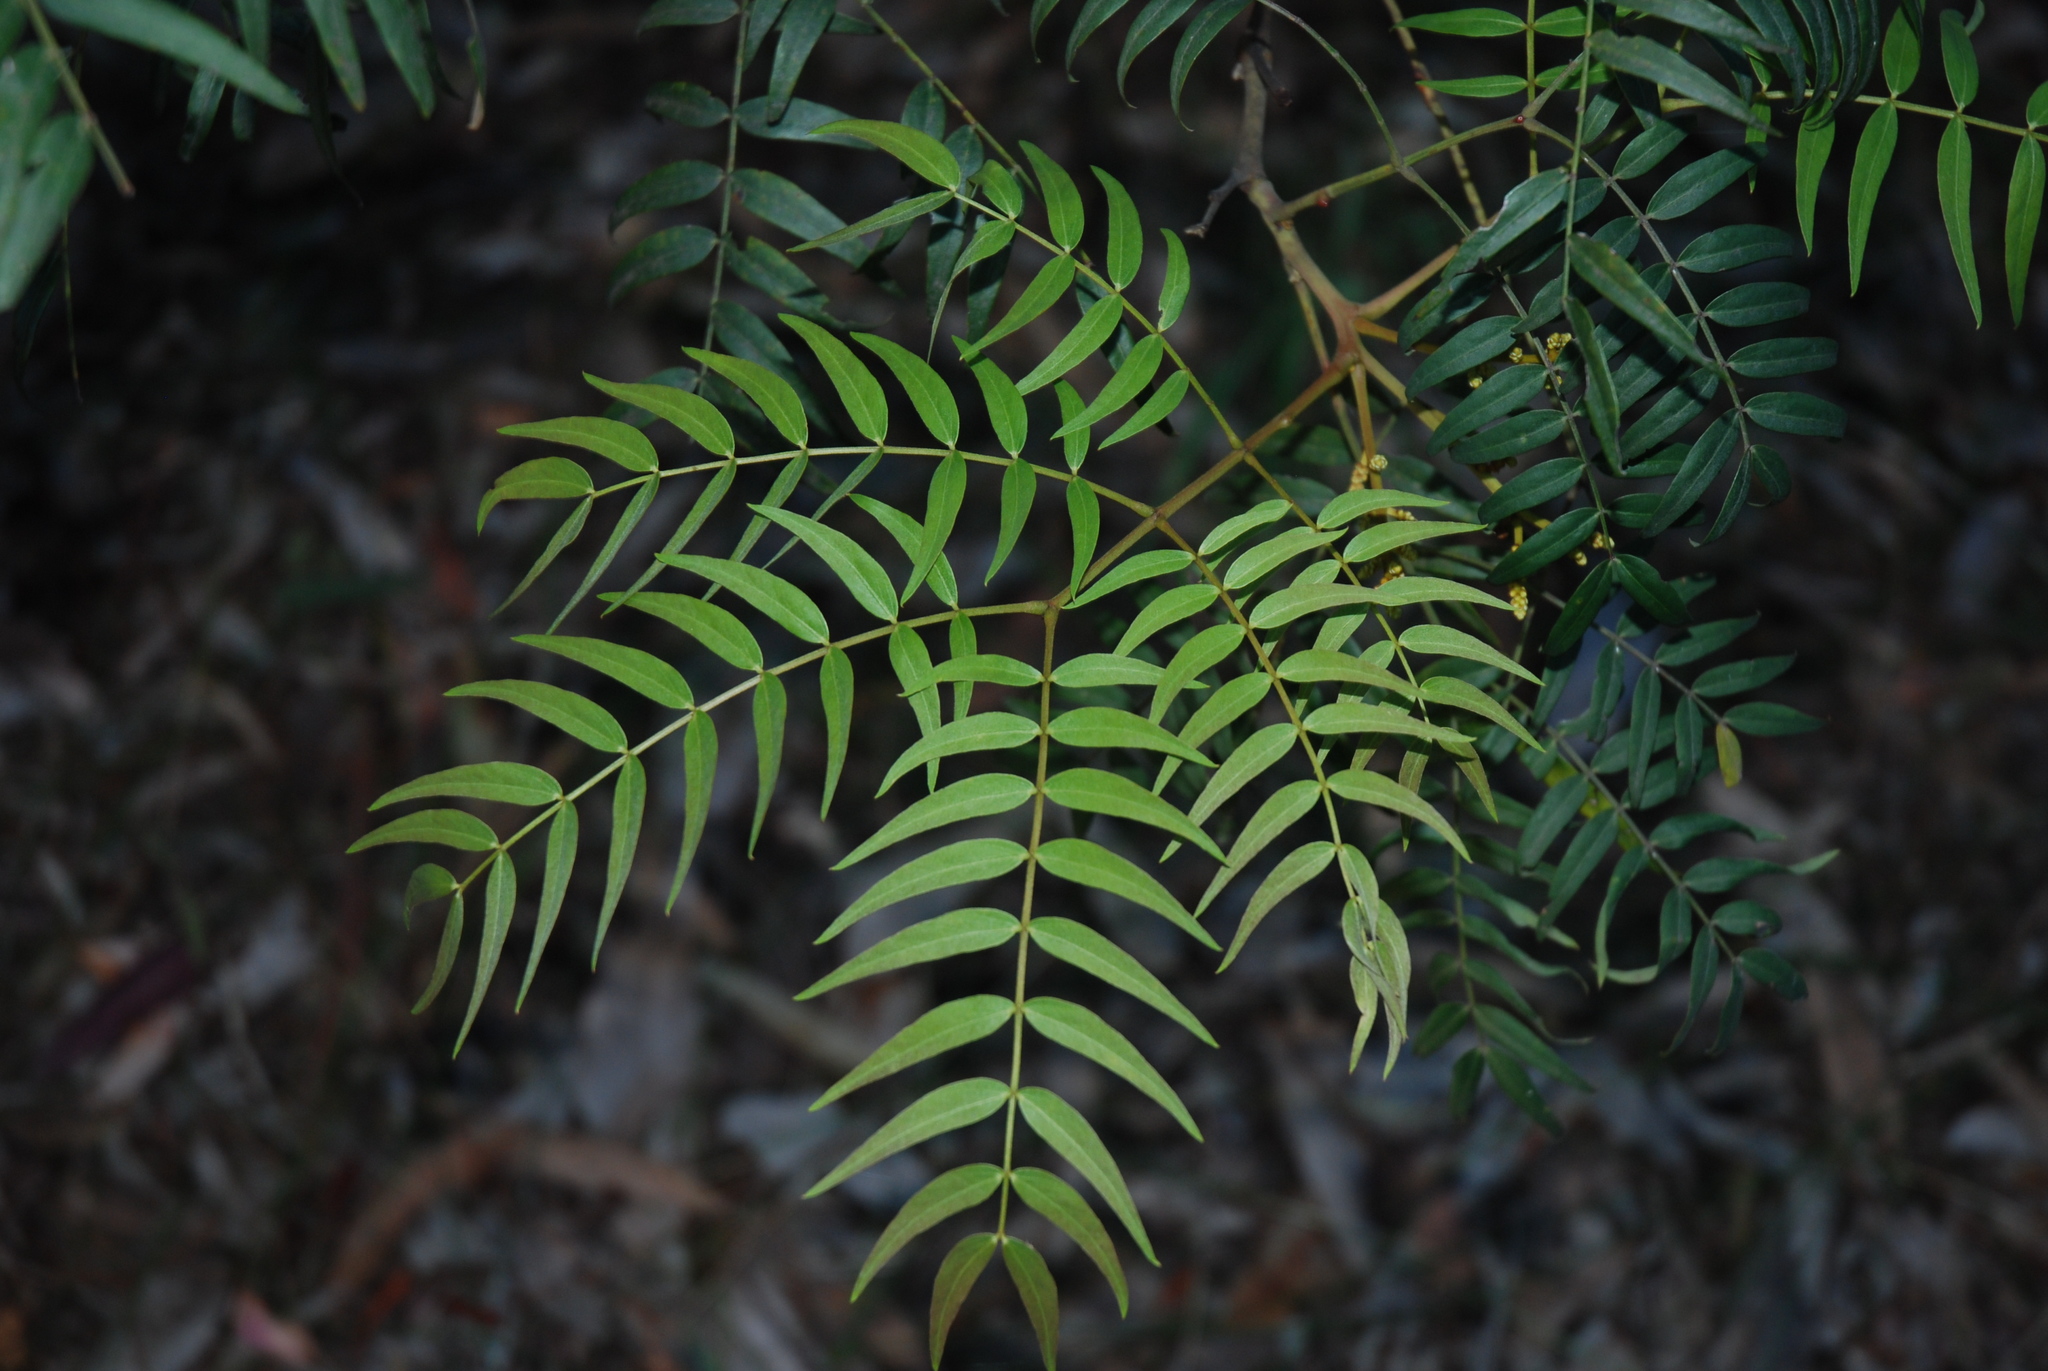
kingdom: Plantae
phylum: Tracheophyta
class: Magnoliopsida
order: Fabales
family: Fabaceae
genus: Acacia
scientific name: Acacia elata
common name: Cedar wattle
